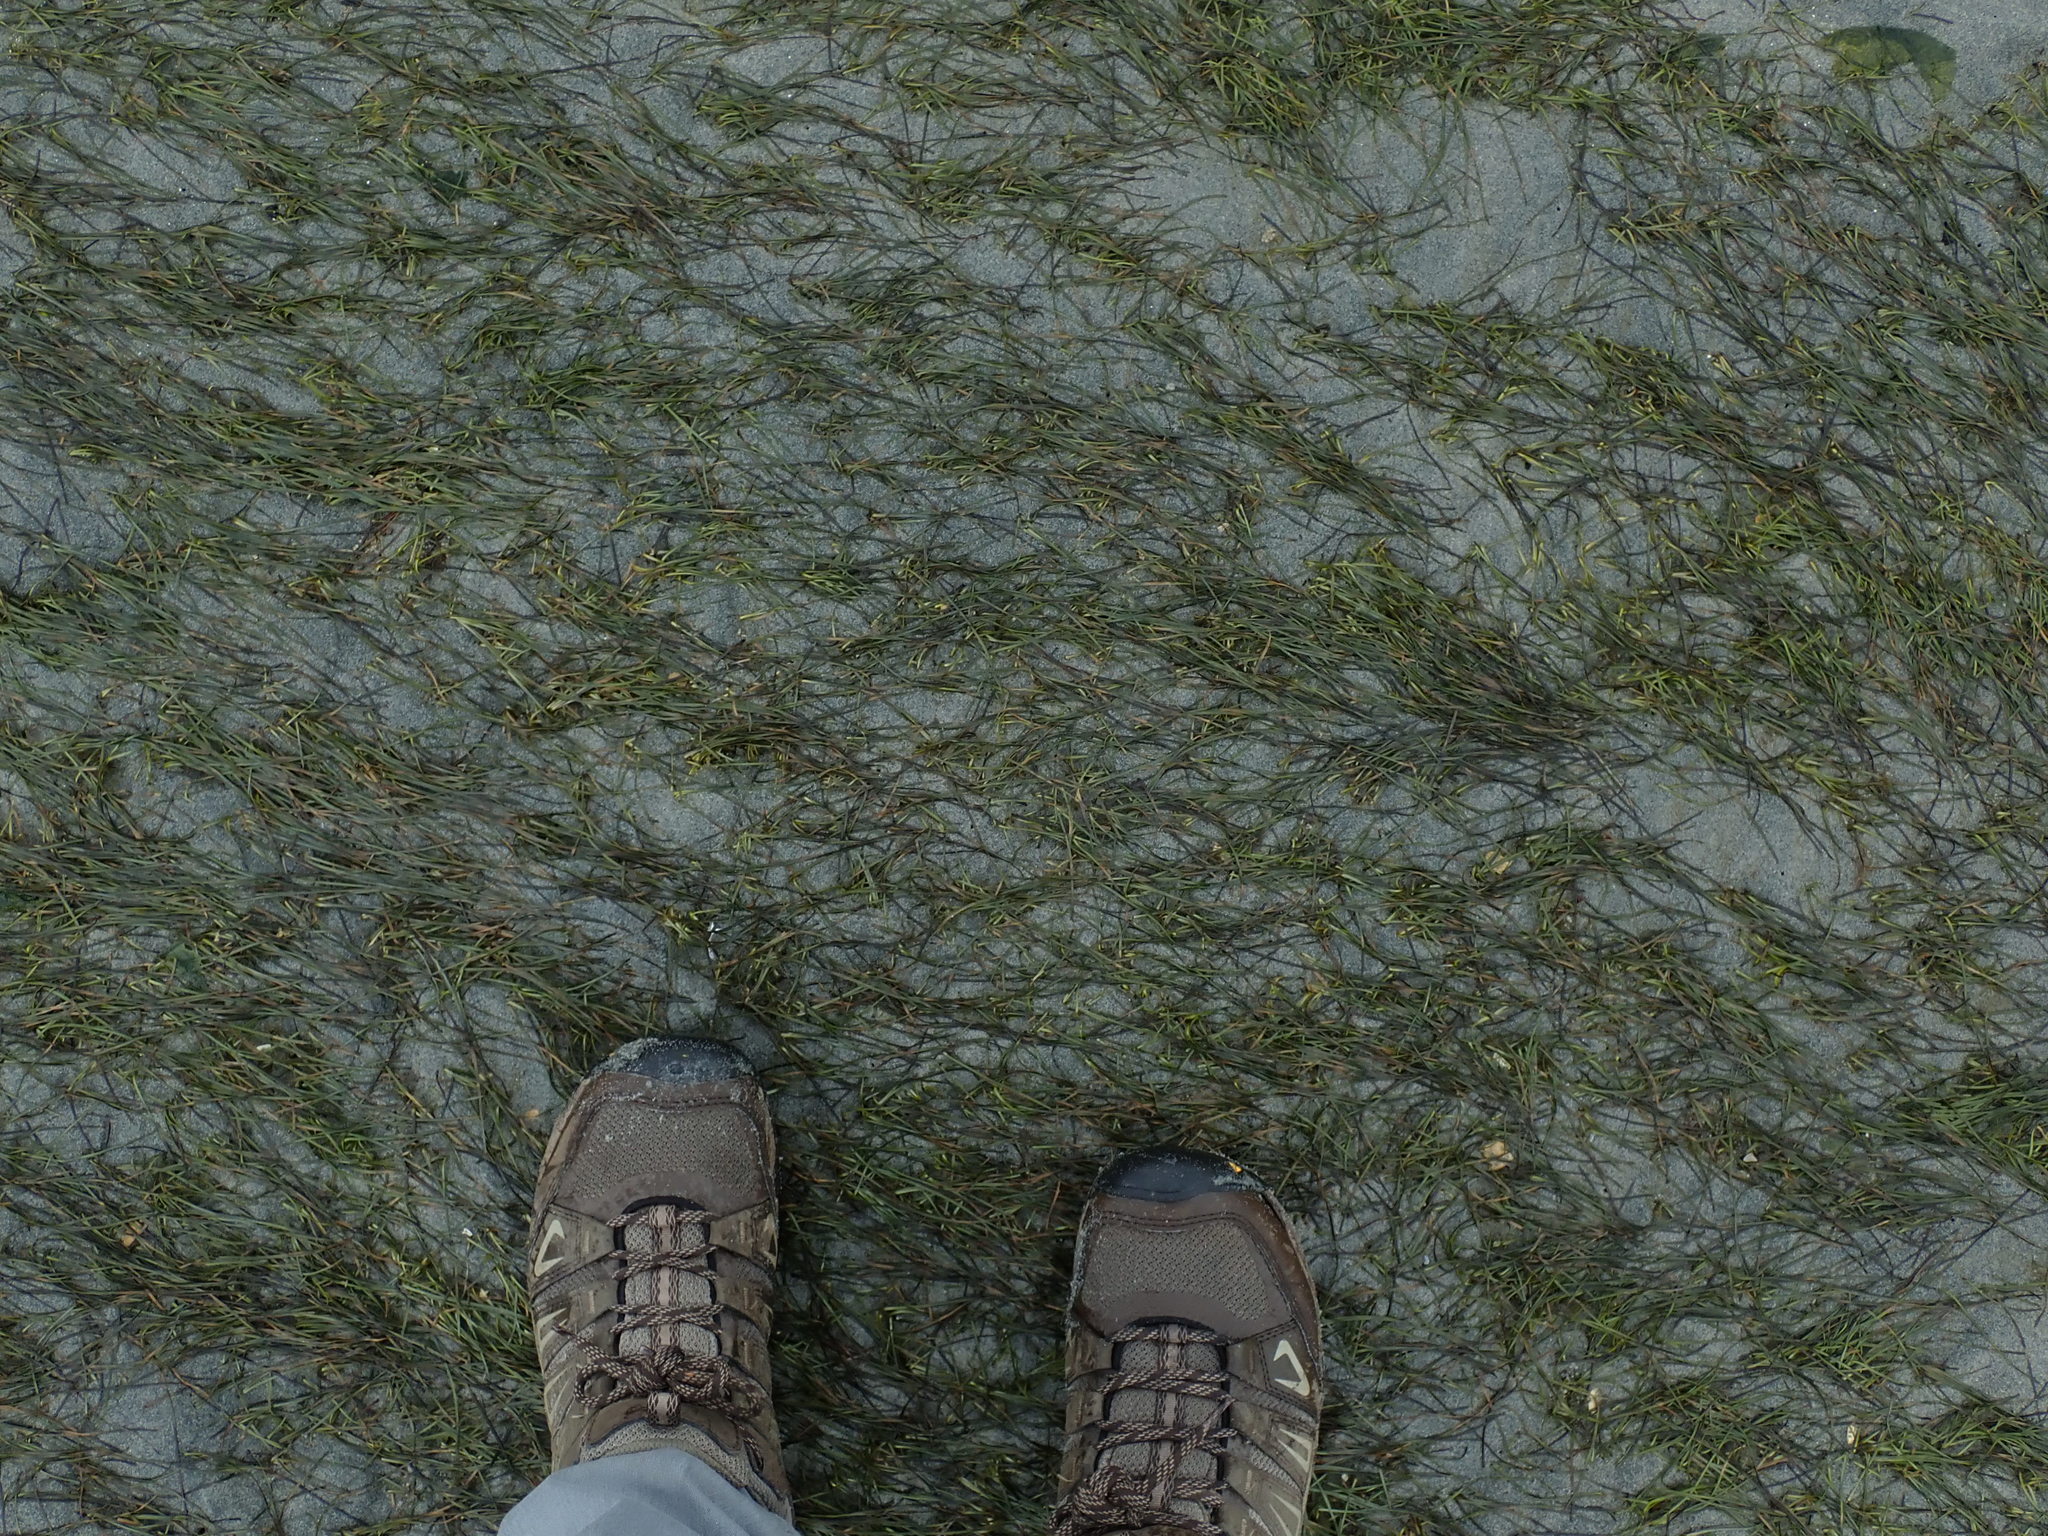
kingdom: Plantae
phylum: Tracheophyta
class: Liliopsida
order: Alismatales
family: Zosteraceae
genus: Zostera
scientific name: Zostera japonica
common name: Dwarf eelgrass
